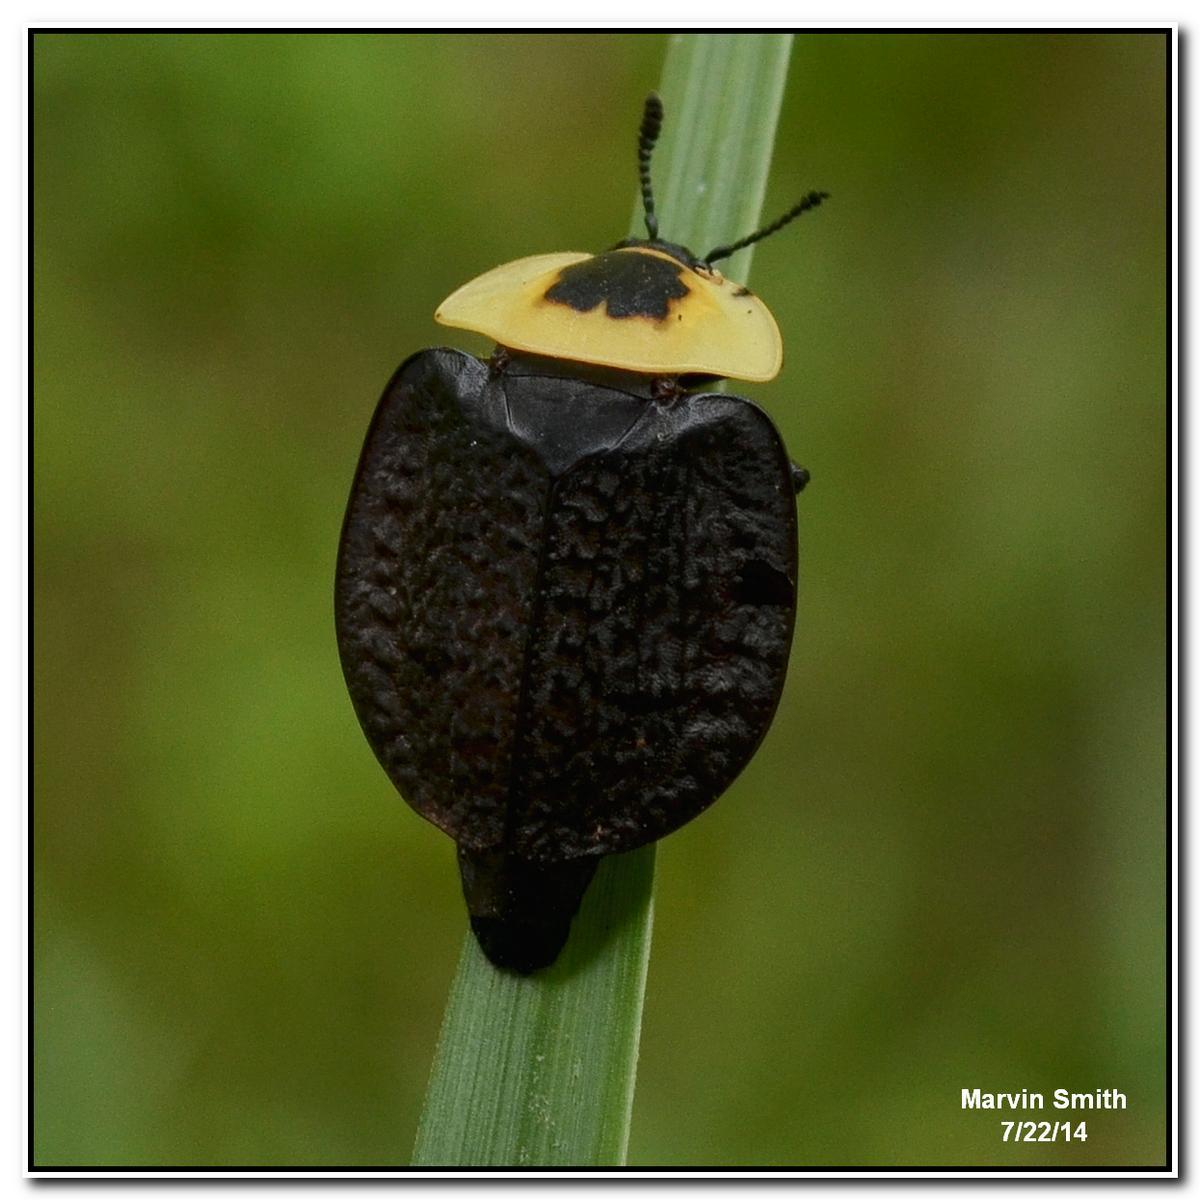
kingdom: Animalia
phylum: Arthropoda
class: Insecta
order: Coleoptera
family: Staphylinidae
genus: Necrophila
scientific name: Necrophila americana
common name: American carrion beetle
